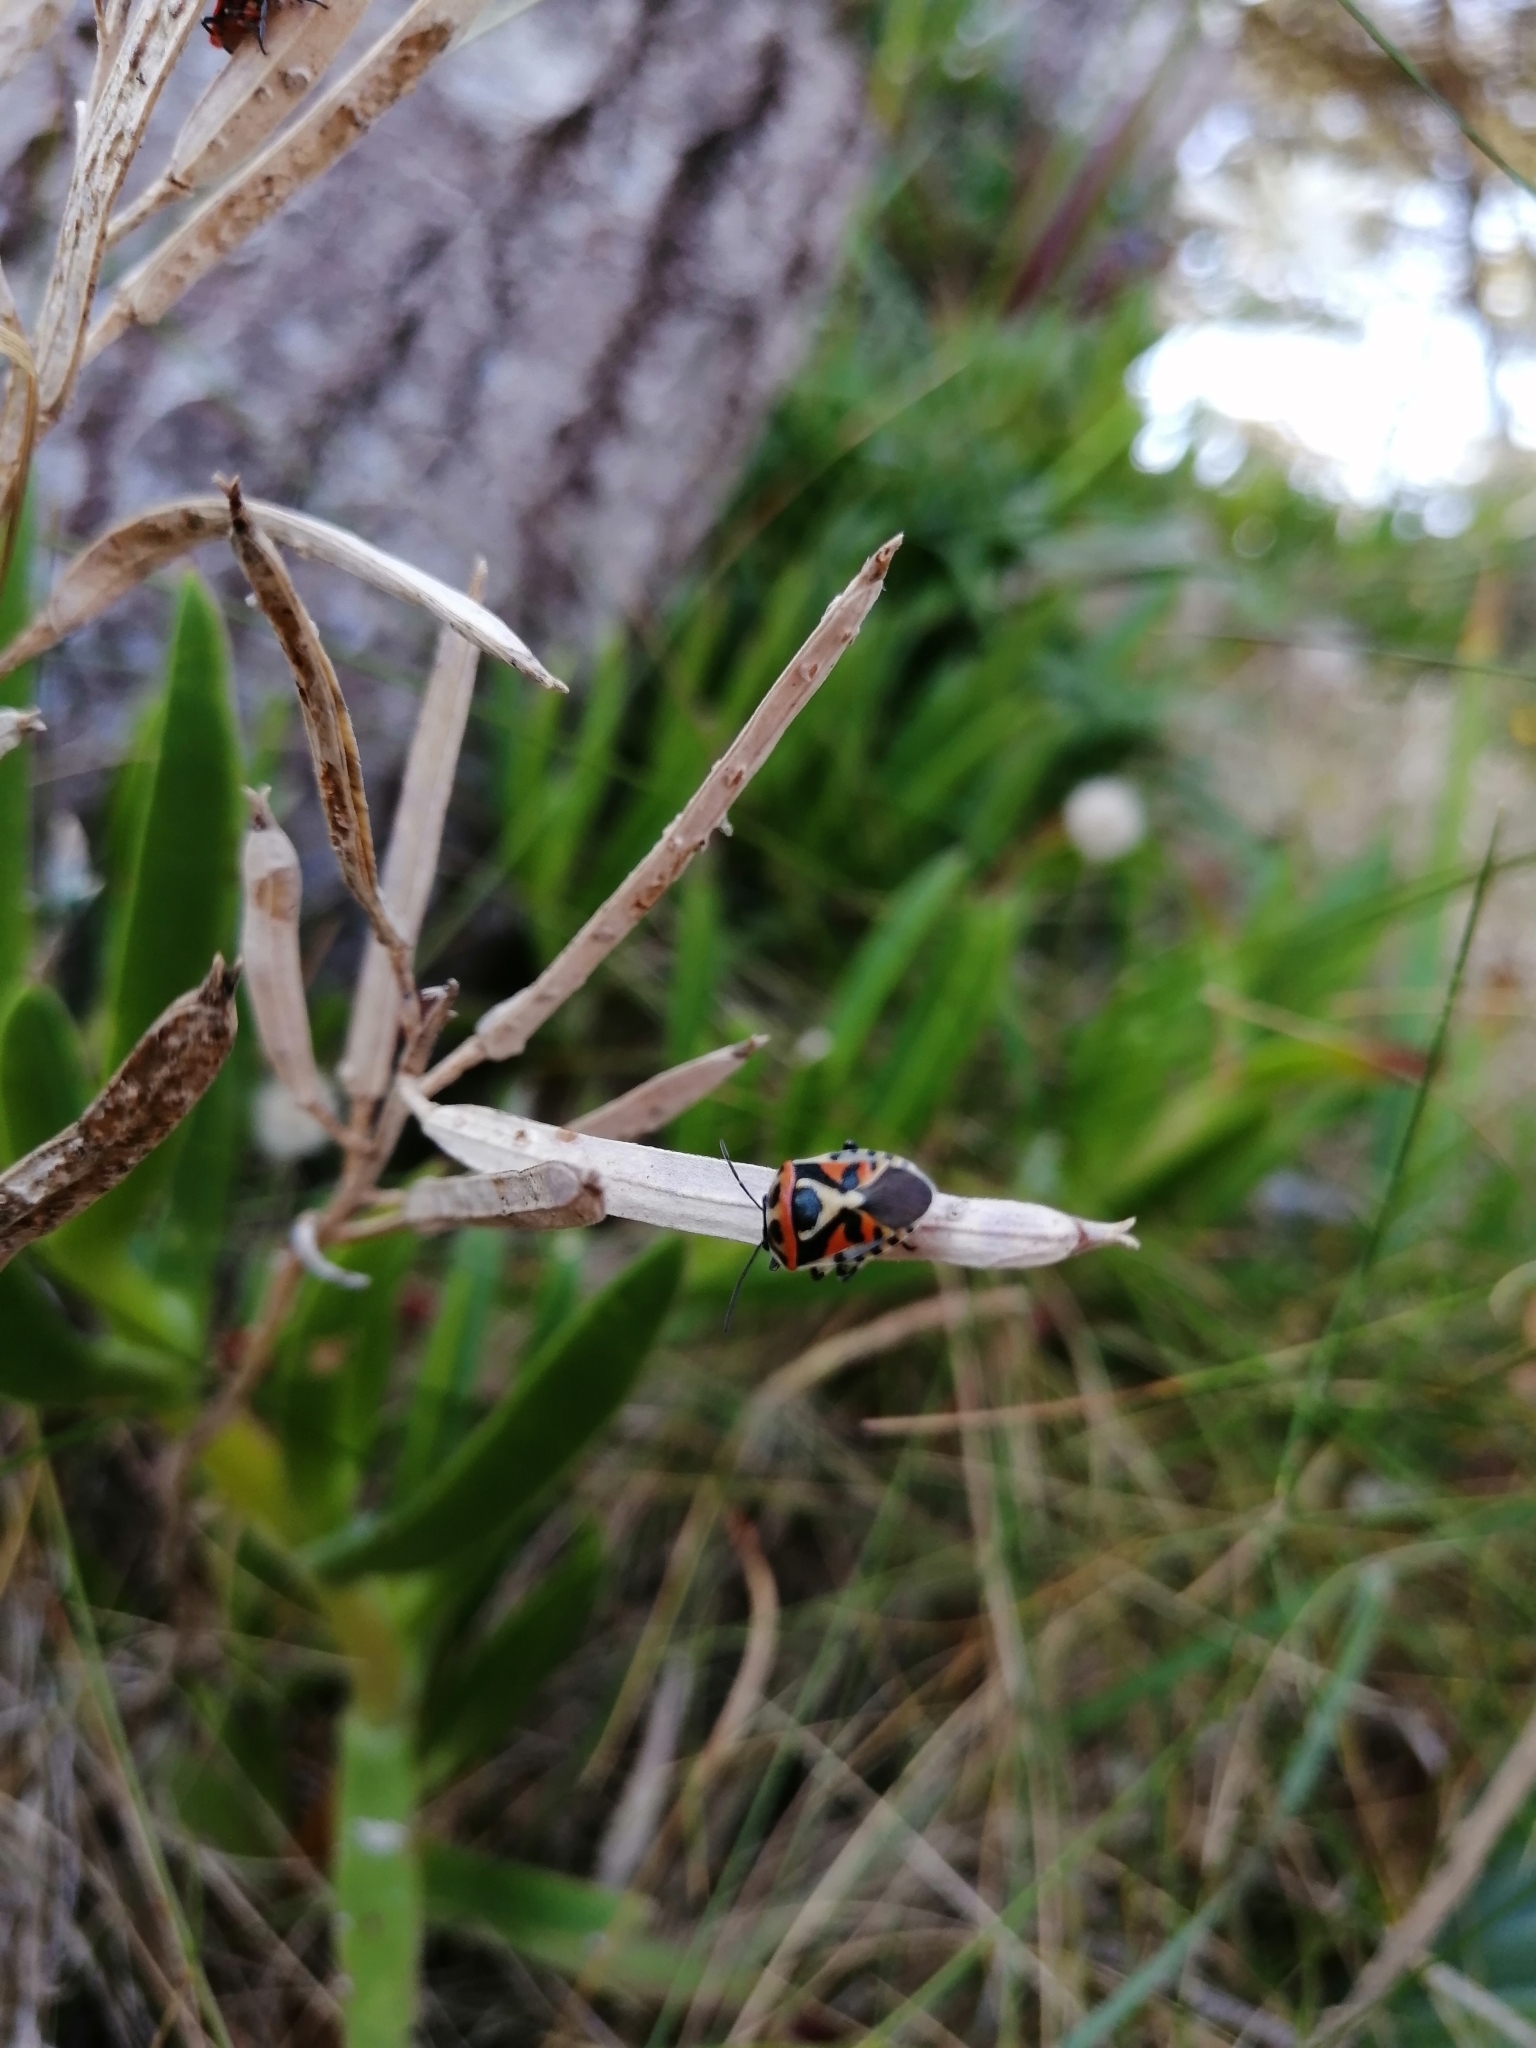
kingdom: Animalia
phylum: Arthropoda
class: Insecta
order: Hemiptera
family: Pentatomidae
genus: Eurydema
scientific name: Eurydema ornata
